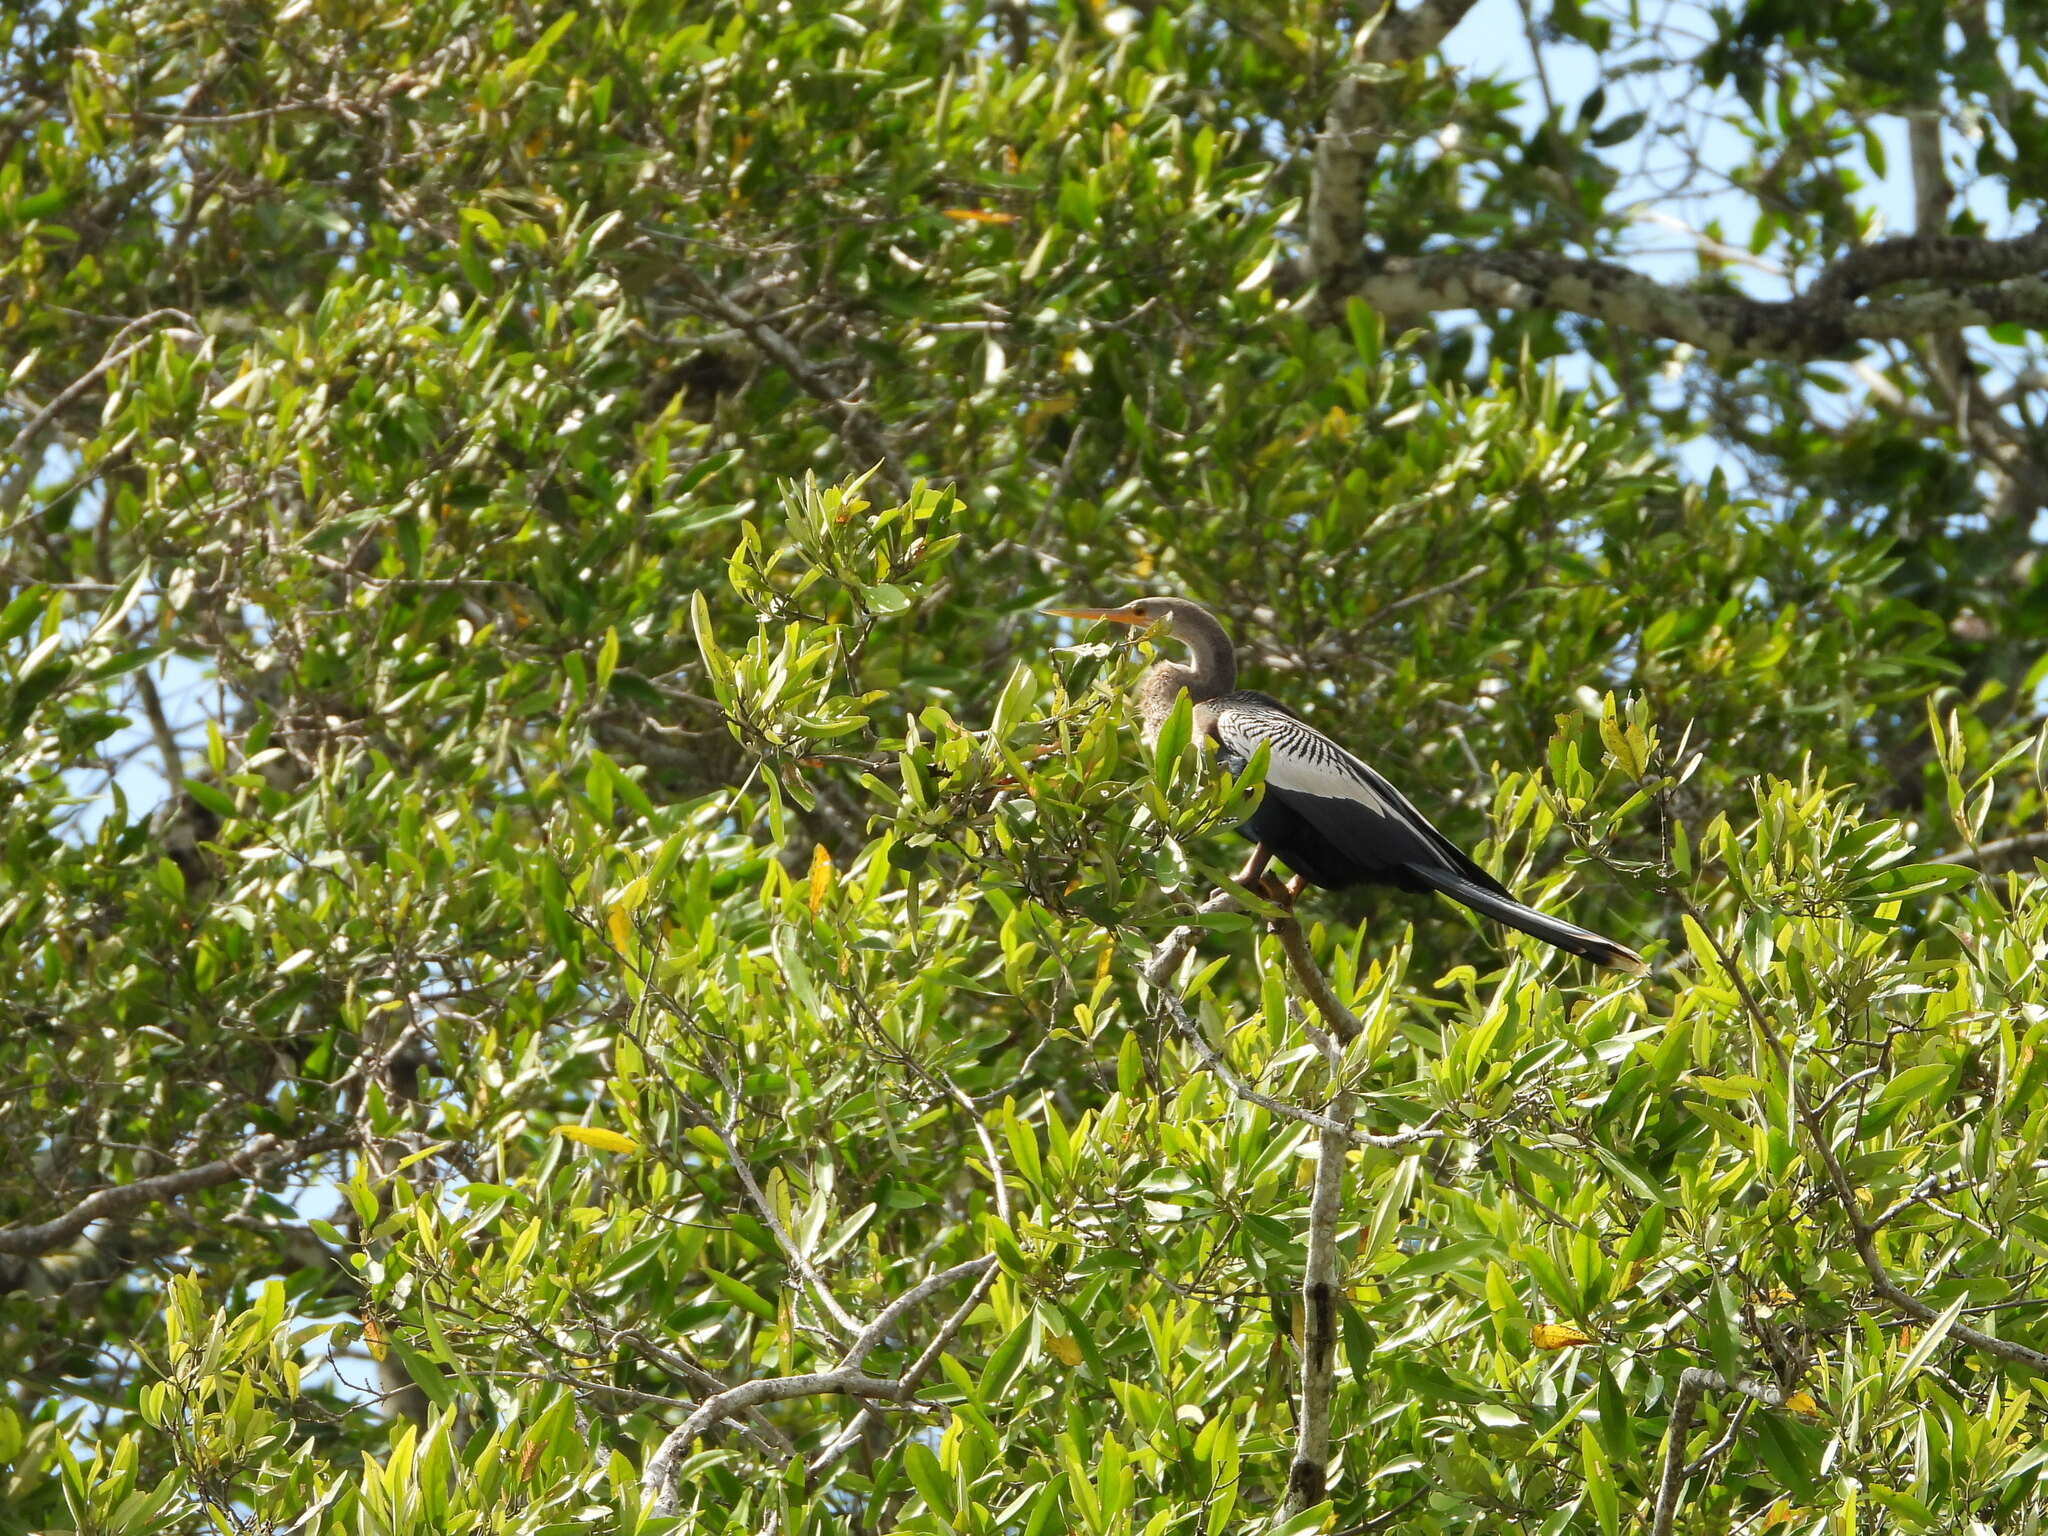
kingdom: Animalia
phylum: Chordata
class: Aves
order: Suliformes
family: Anhingidae
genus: Anhinga
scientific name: Anhinga anhinga
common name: Anhinga
